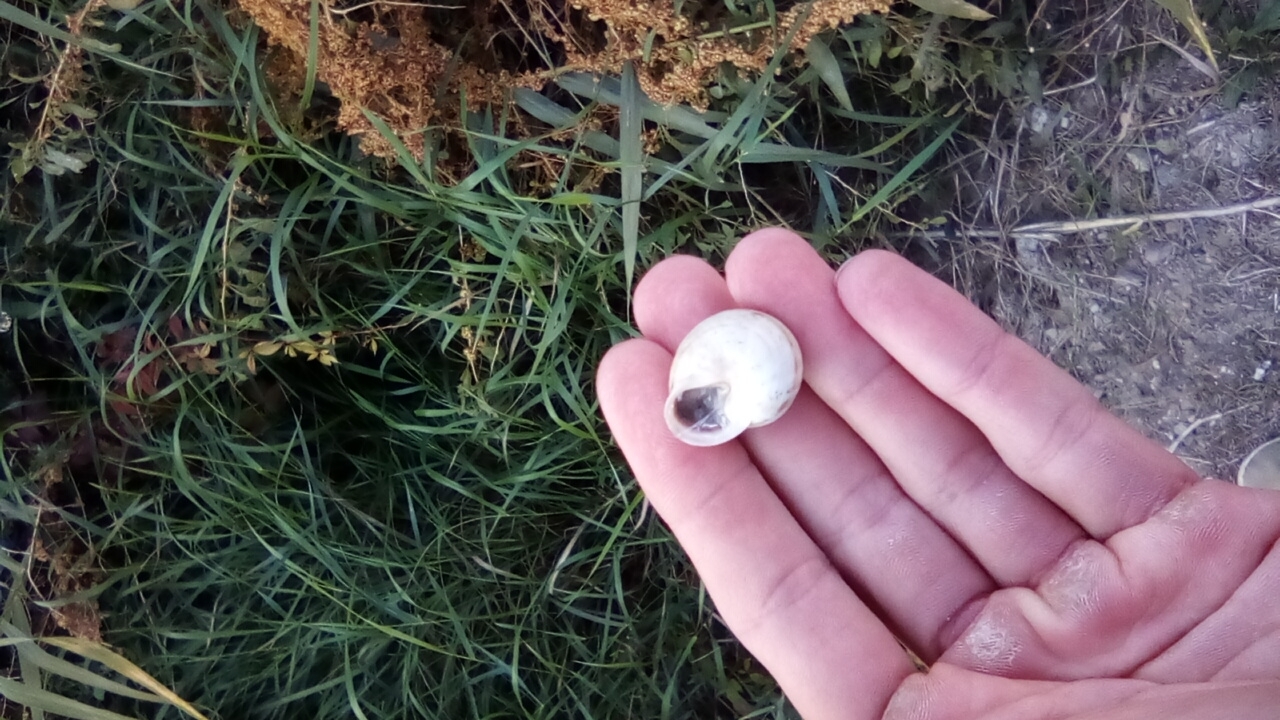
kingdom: Animalia
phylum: Mollusca
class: Gastropoda
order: Stylommatophora
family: Helicidae
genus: Eobania
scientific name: Eobania vermiculata
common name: Chocolateband snail
